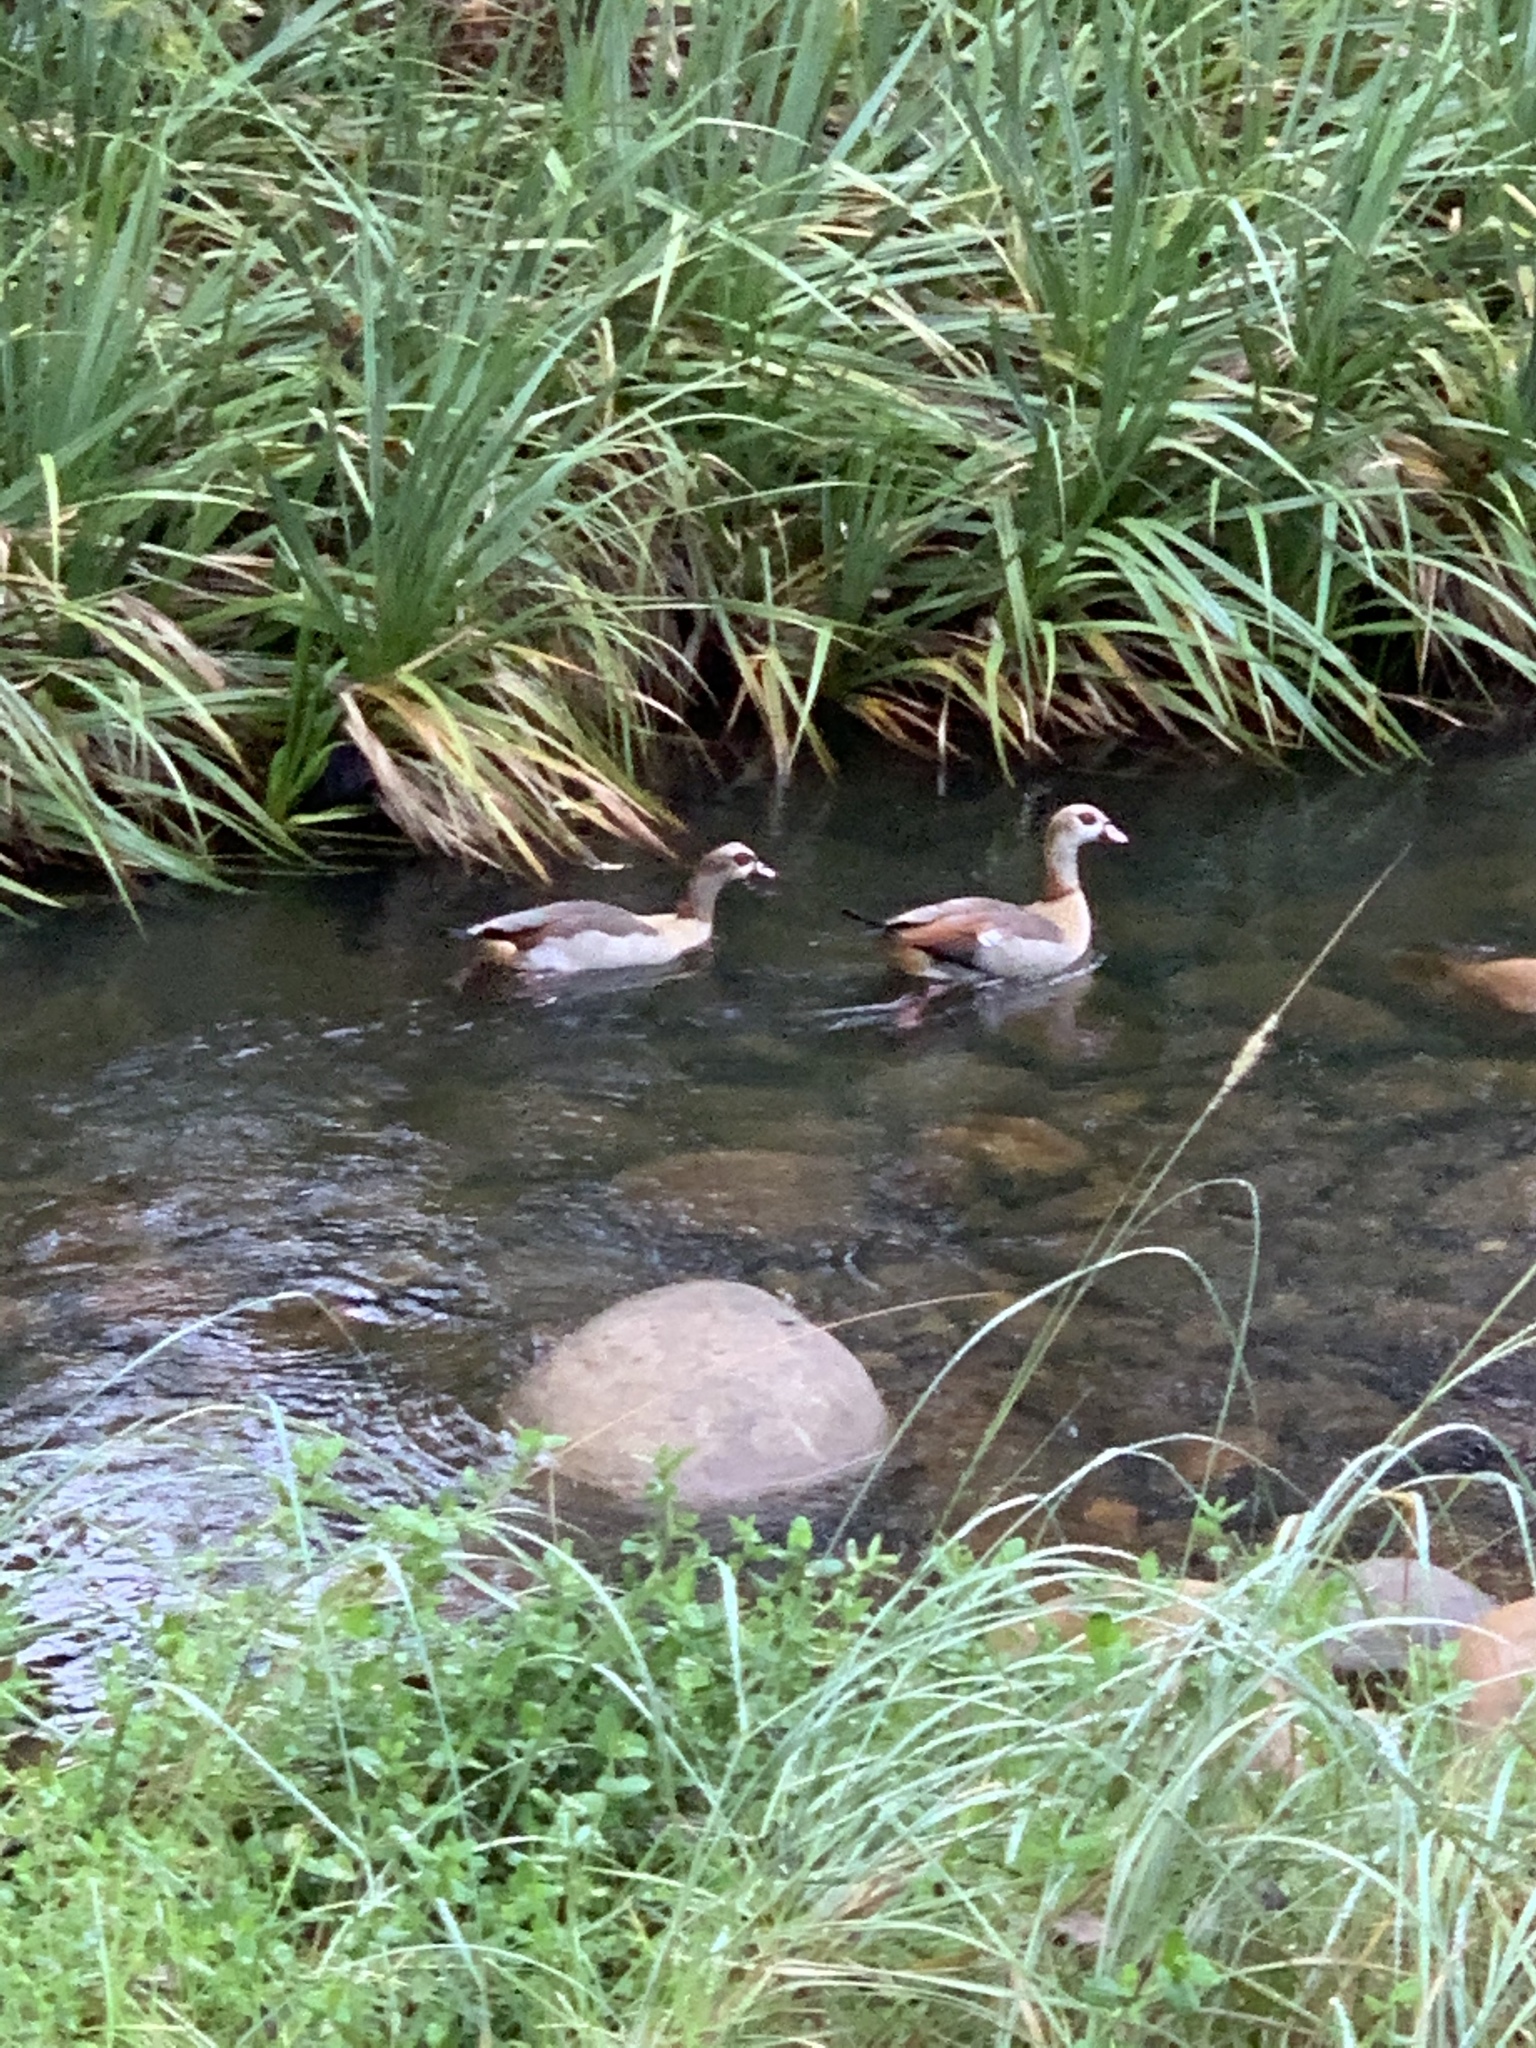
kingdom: Animalia
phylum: Chordata
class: Aves
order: Anseriformes
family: Anatidae
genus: Alopochen
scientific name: Alopochen aegyptiaca
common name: Egyptian goose
